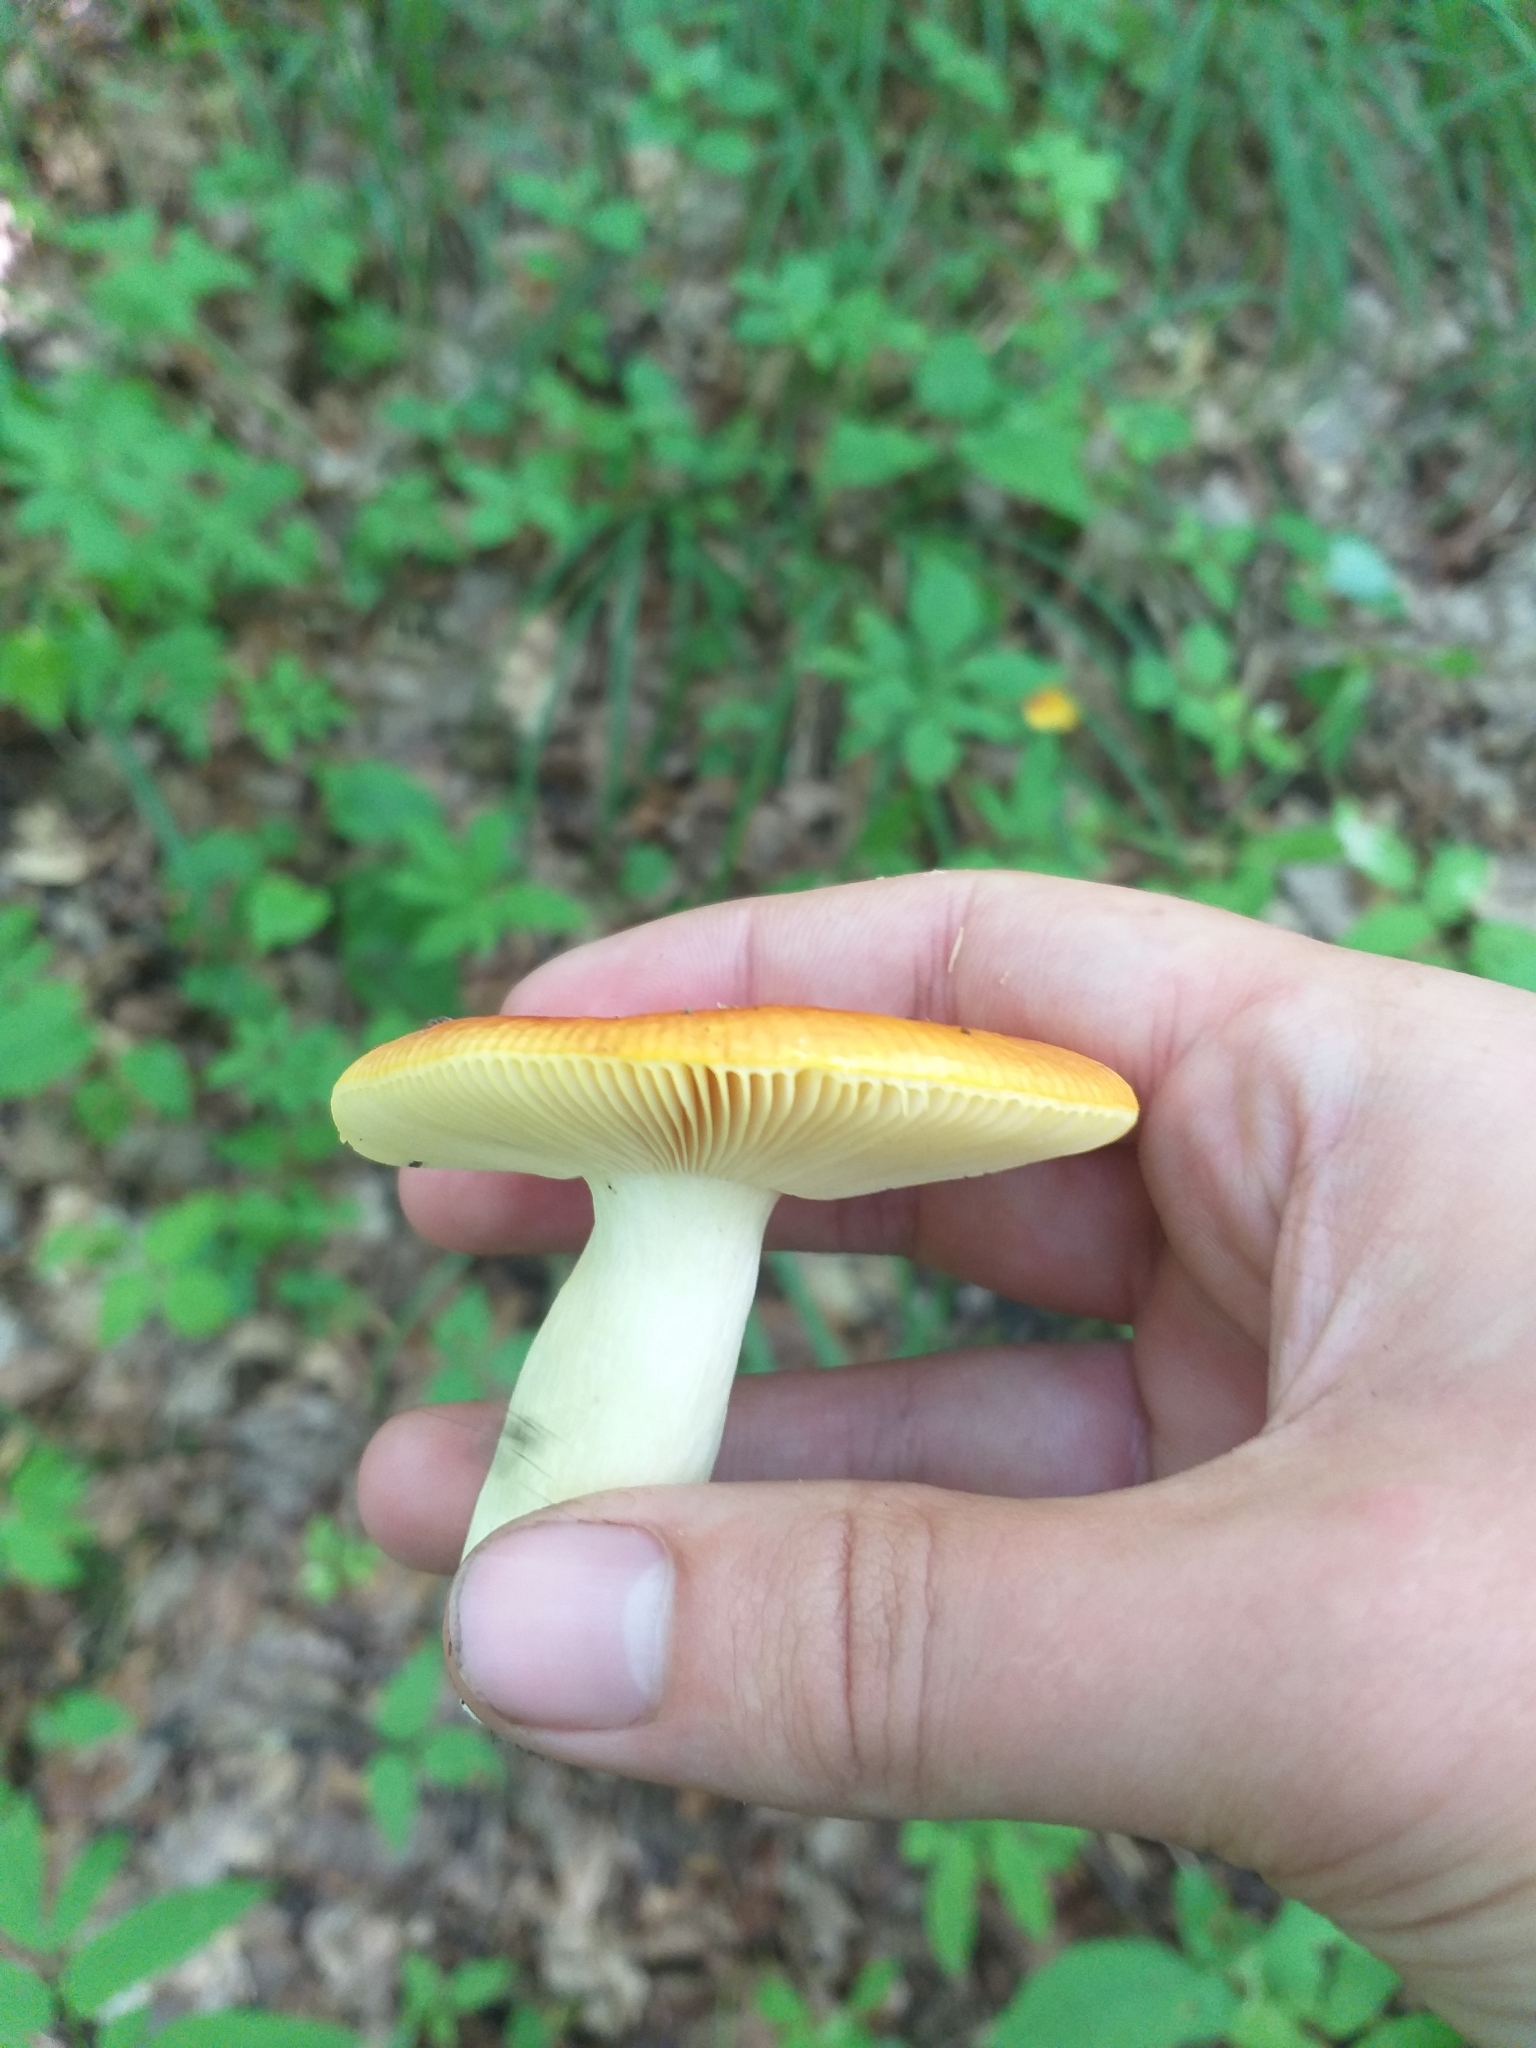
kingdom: Fungi
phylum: Basidiomycota
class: Agaricomycetes
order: Russulales
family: Russulaceae
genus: Russula
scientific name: Russula aurea
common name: Gilded brittlegill
